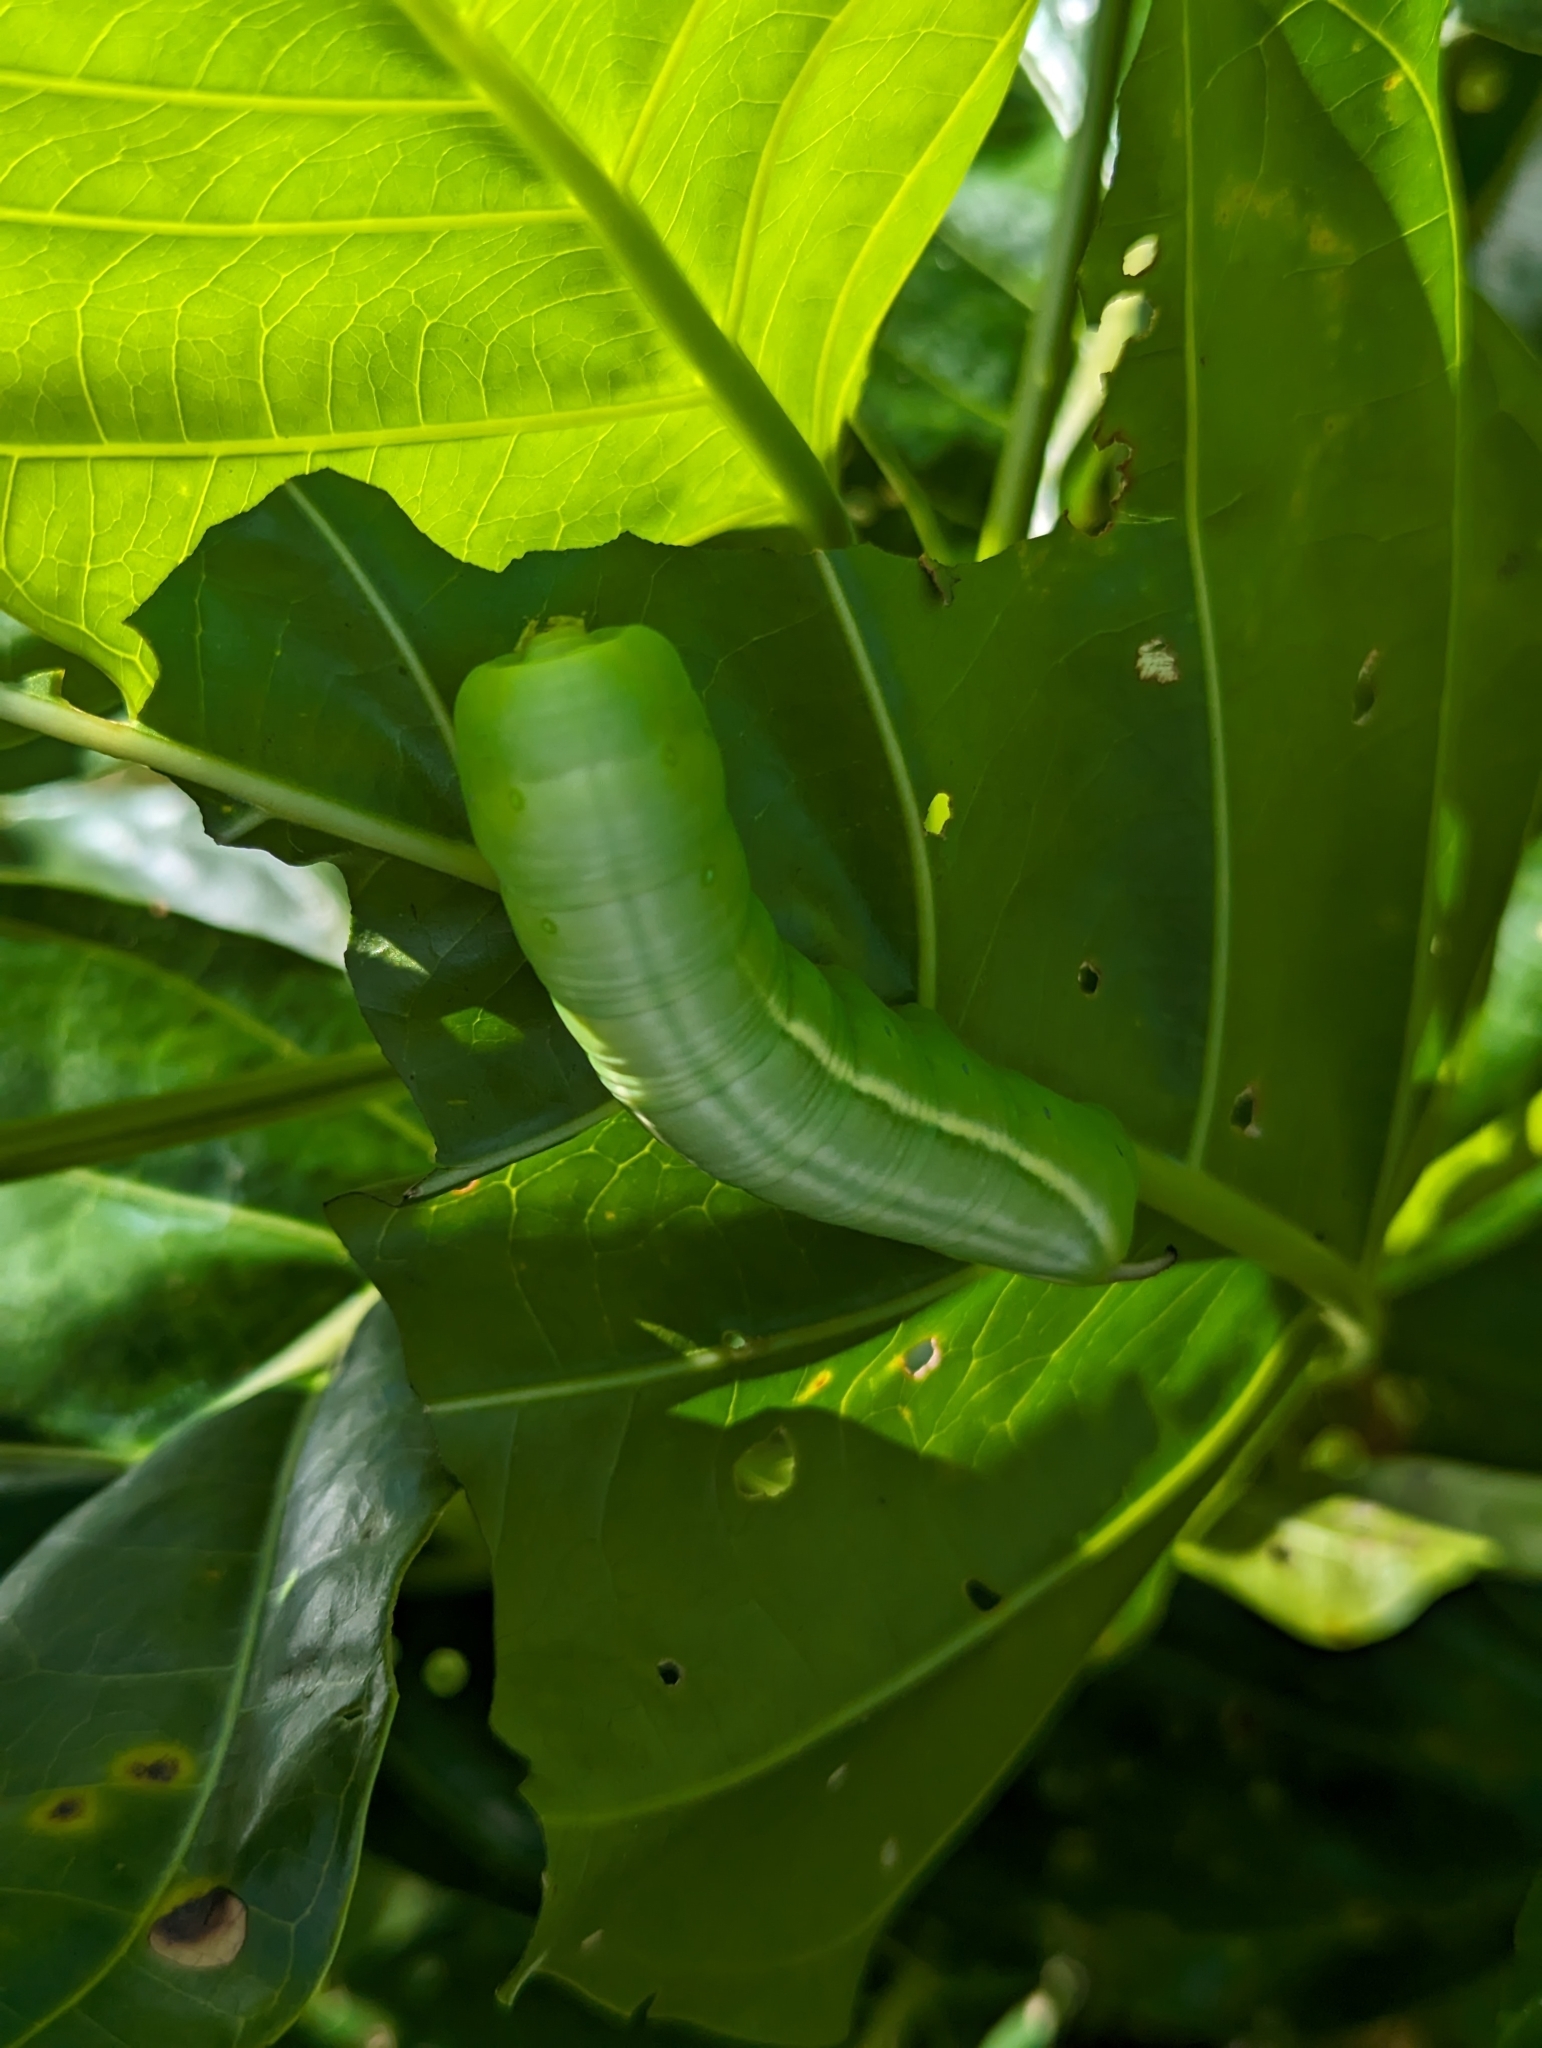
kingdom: Animalia
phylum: Arthropoda
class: Insecta
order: Lepidoptera
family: Sphingidae
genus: Gnathothlibus
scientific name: Gnathothlibus eras
